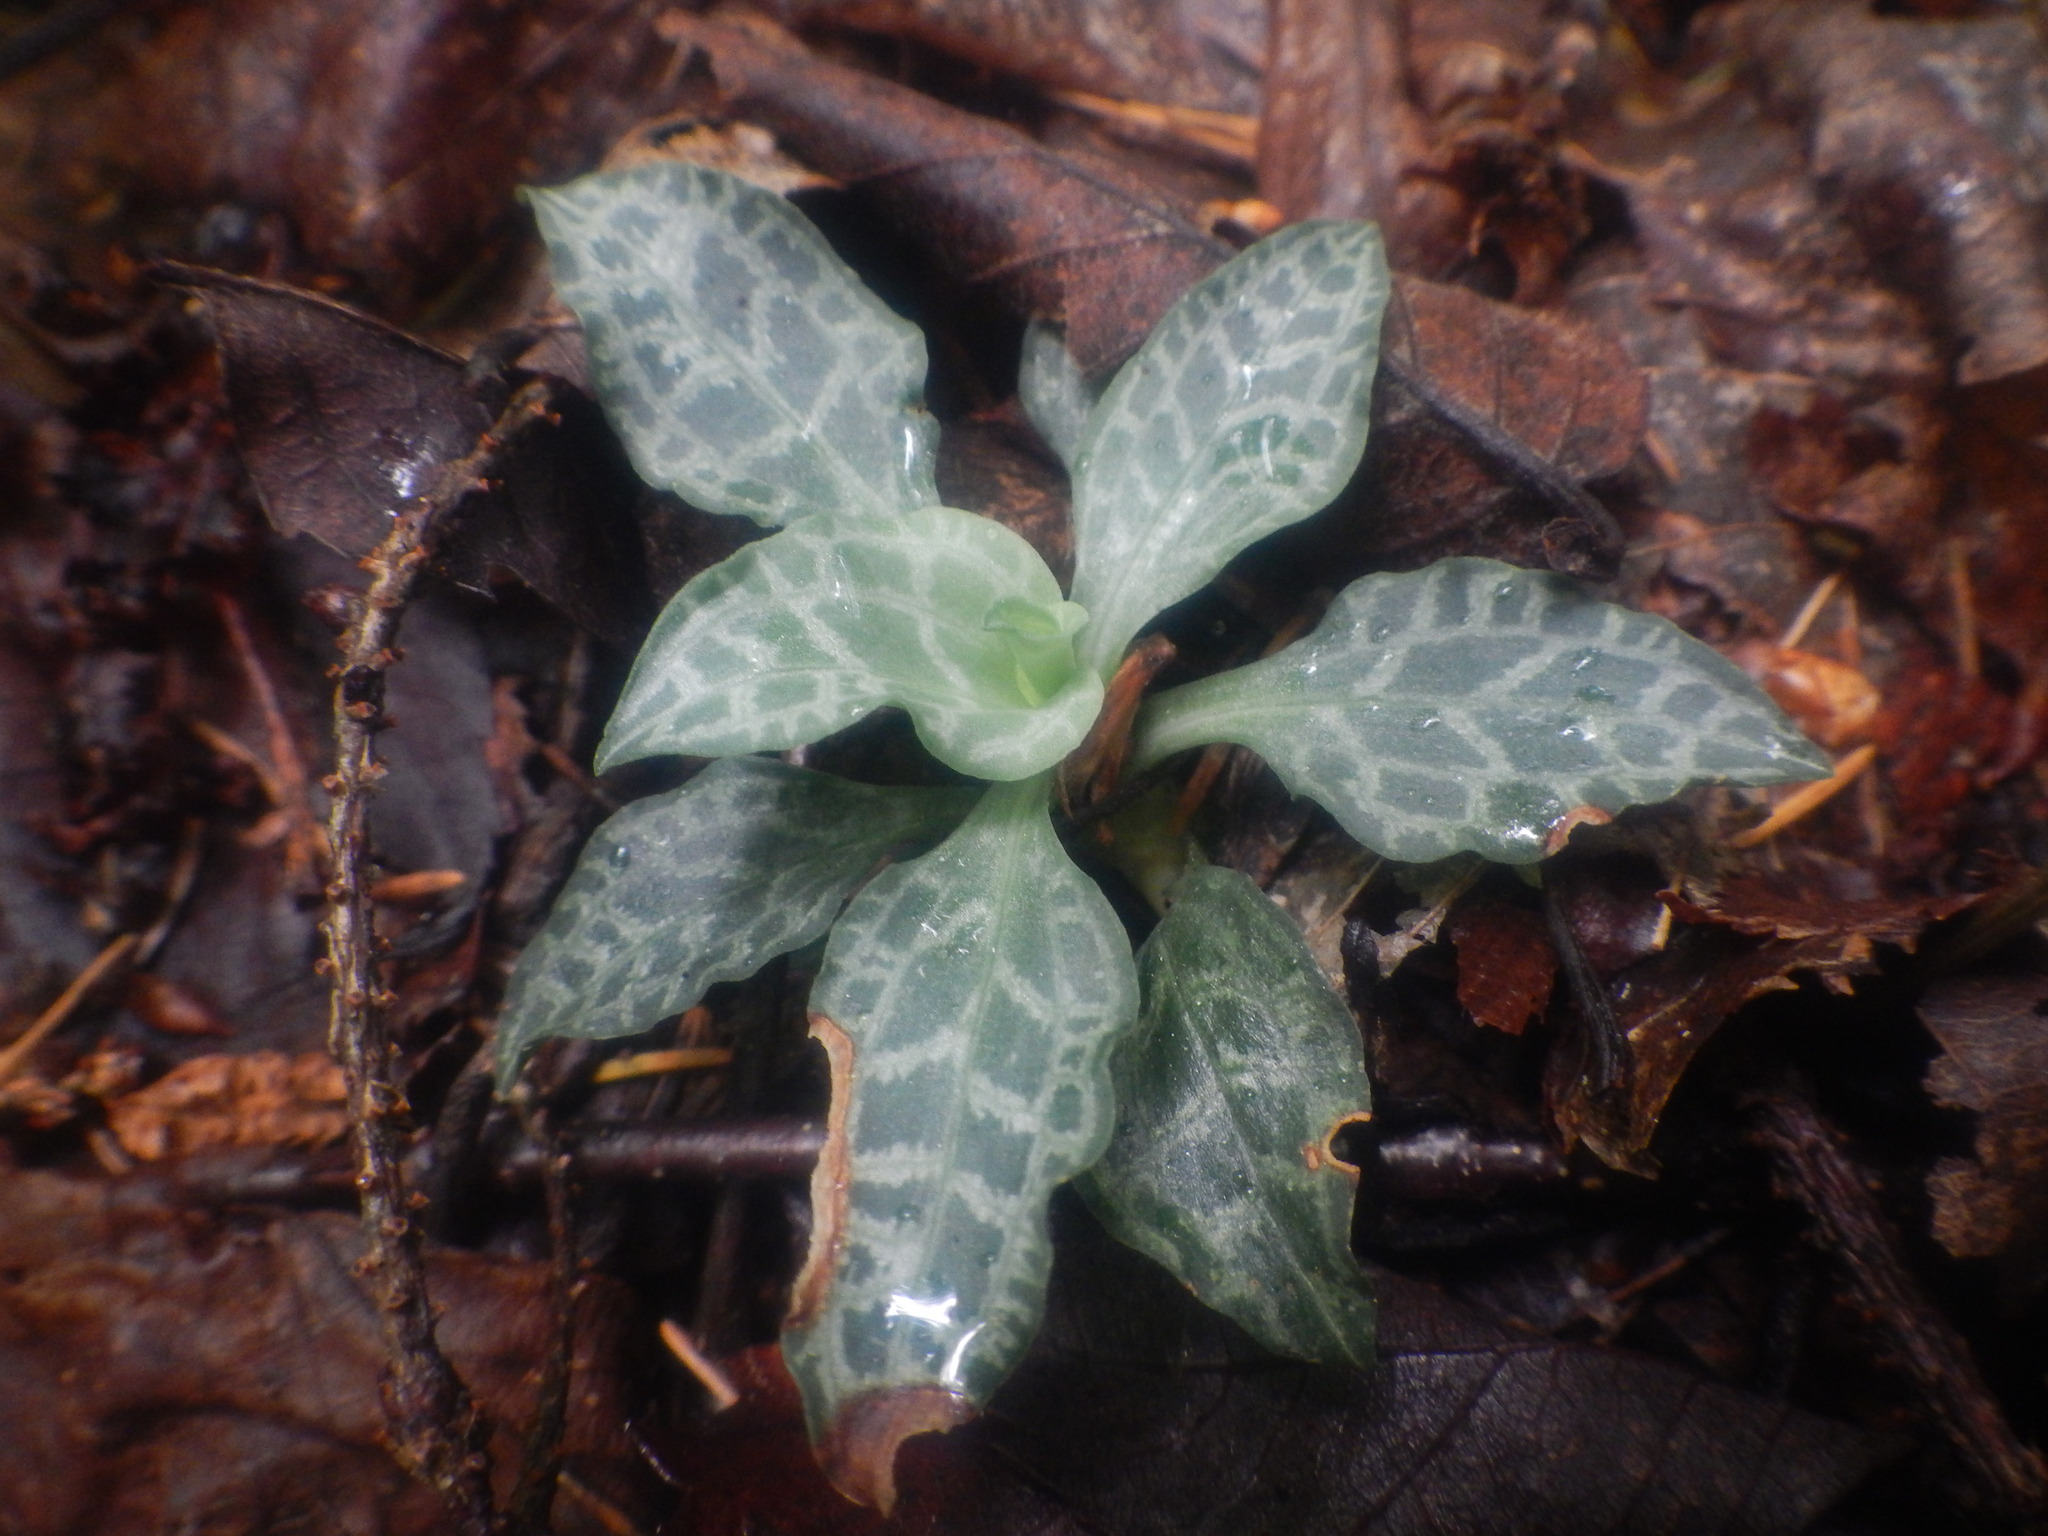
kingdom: Plantae
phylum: Tracheophyta
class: Liliopsida
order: Asparagales
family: Orchidaceae
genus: Goodyera
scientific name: Goodyera tesselata
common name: Checkered rattlesnake-plantain
